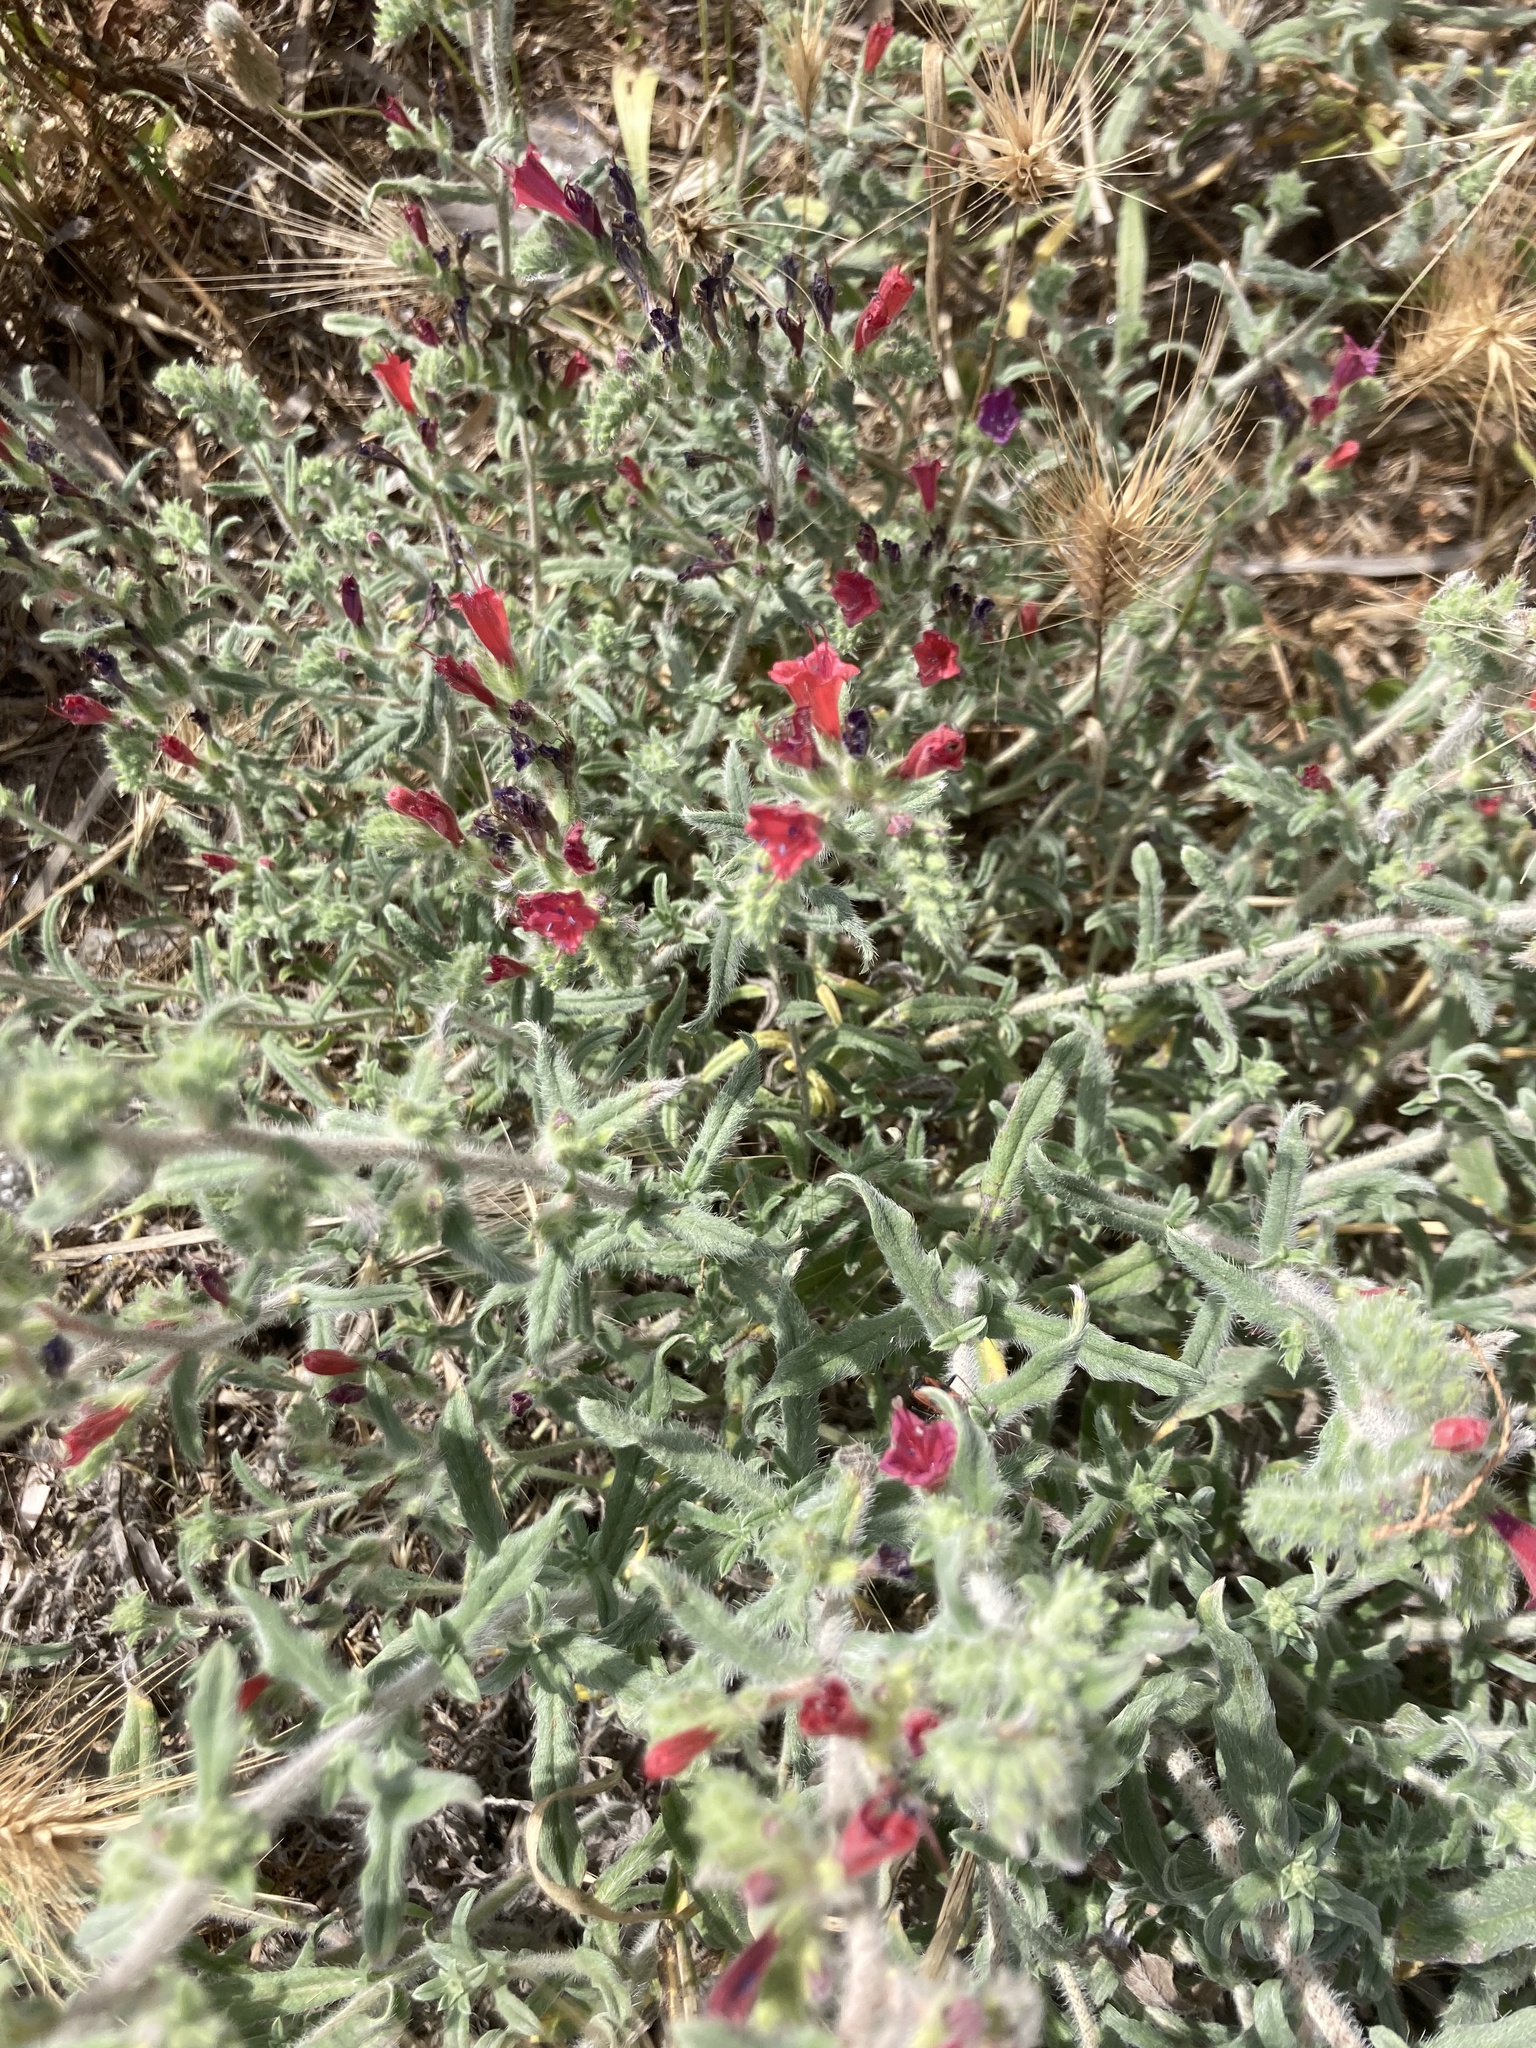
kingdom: Plantae
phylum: Tracheophyta
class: Magnoliopsida
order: Boraginales
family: Boraginaceae
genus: Echium
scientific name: Echium angustifolium
